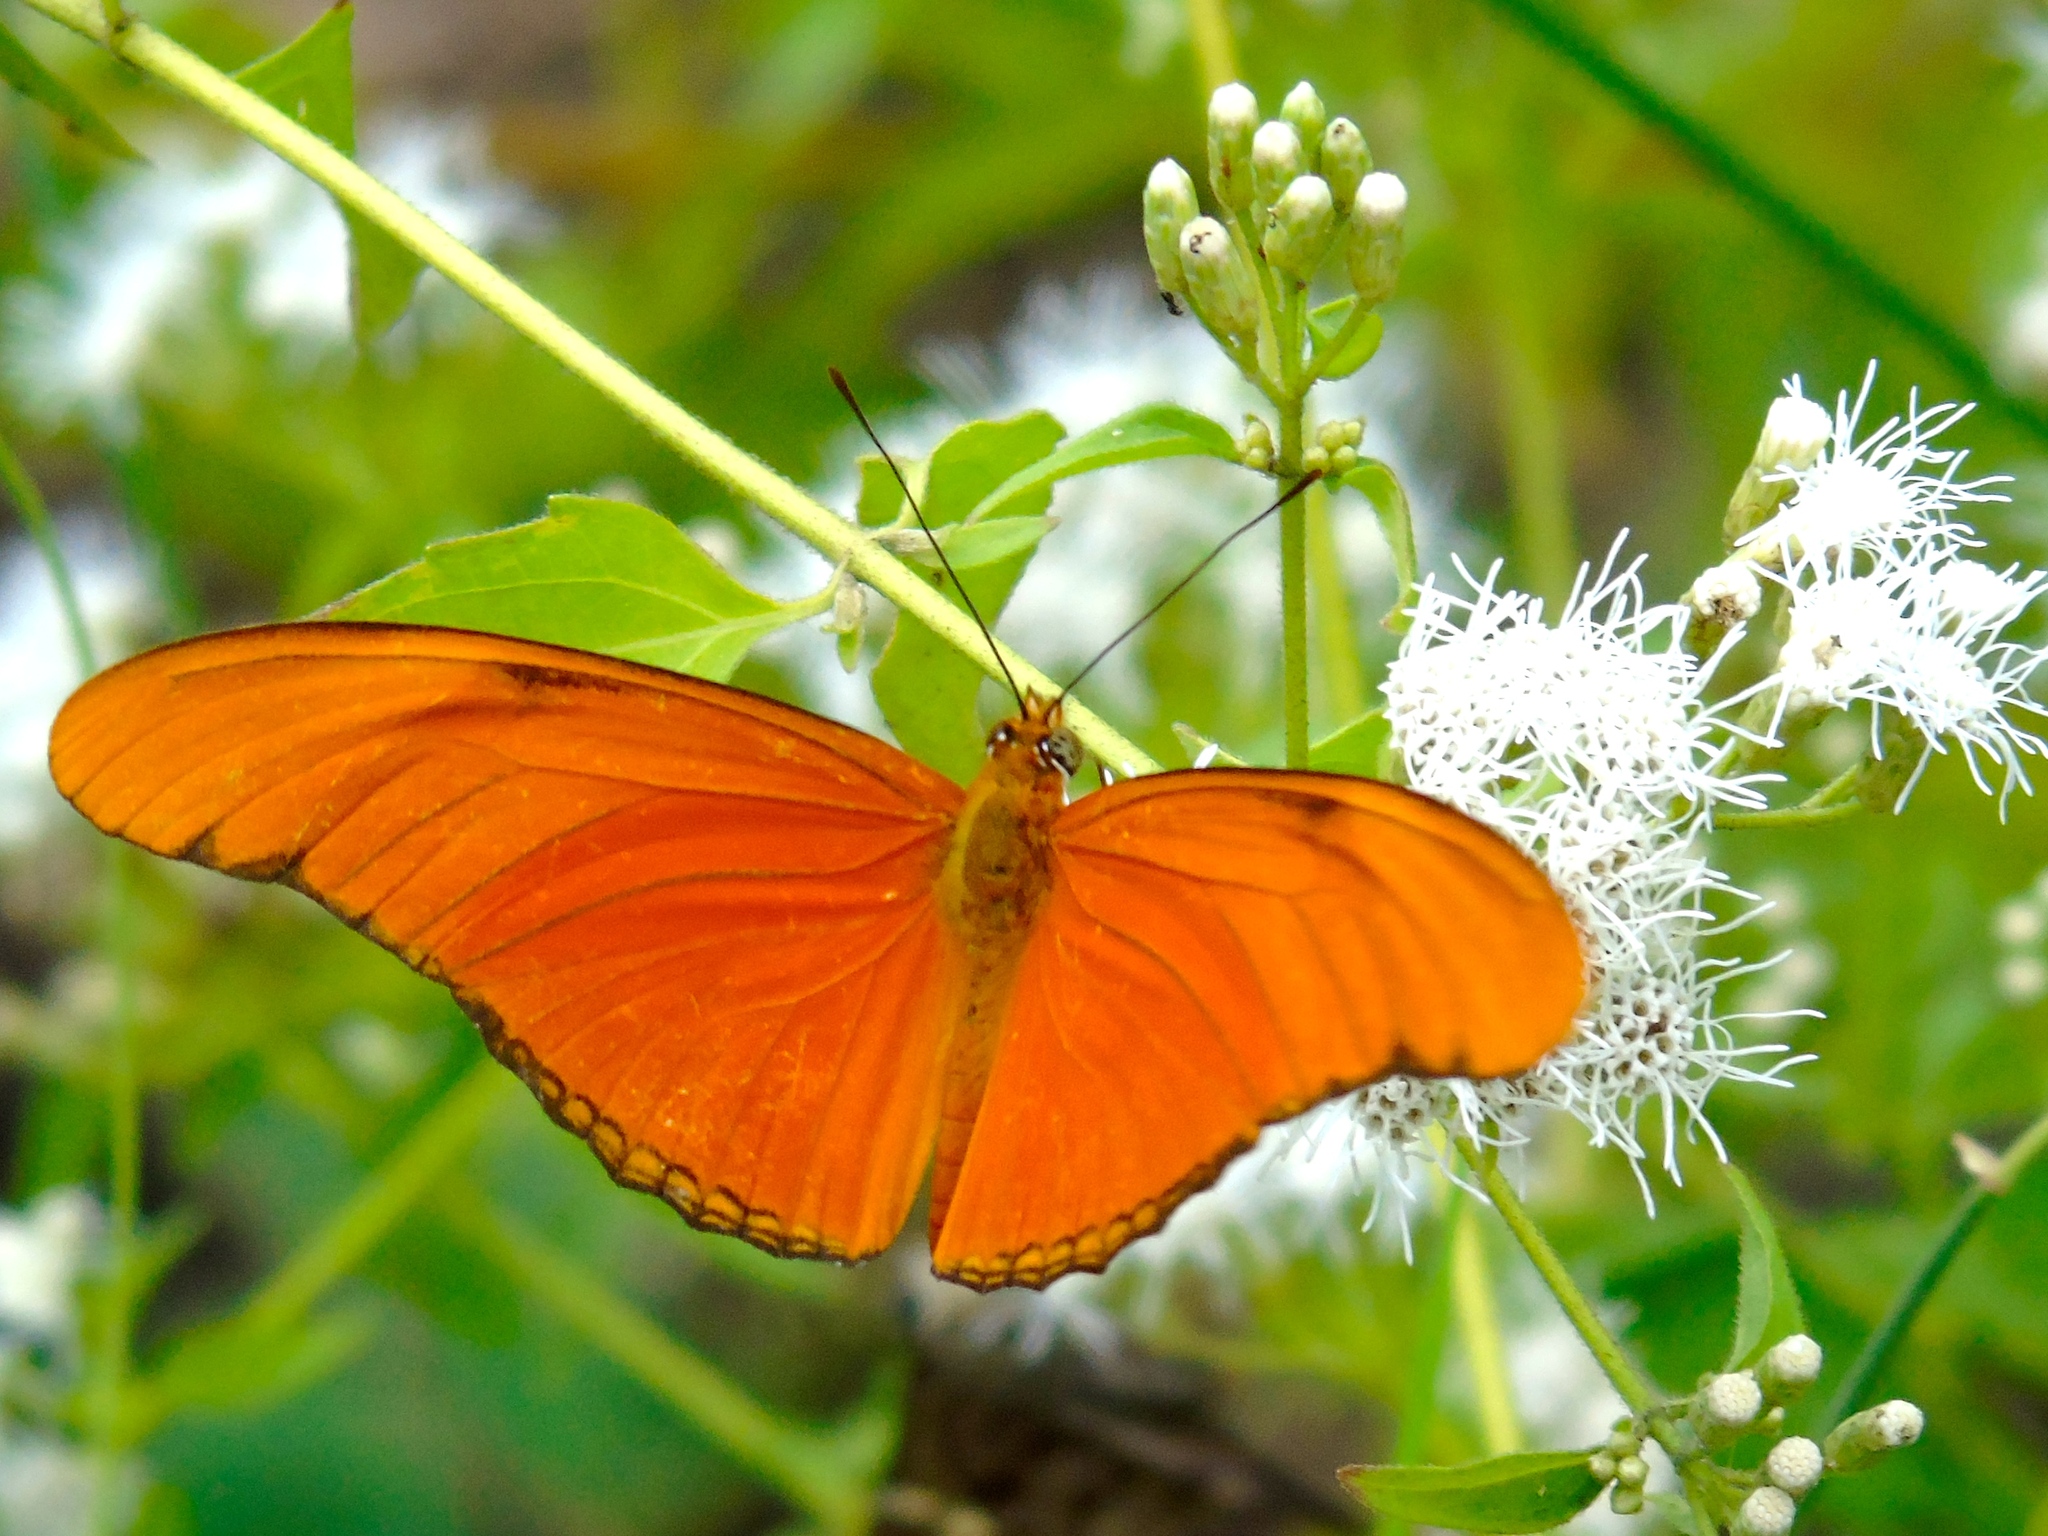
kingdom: Animalia
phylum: Arthropoda
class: Insecta
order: Lepidoptera
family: Nymphalidae
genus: Dryas
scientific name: Dryas iulia
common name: Flambeau
